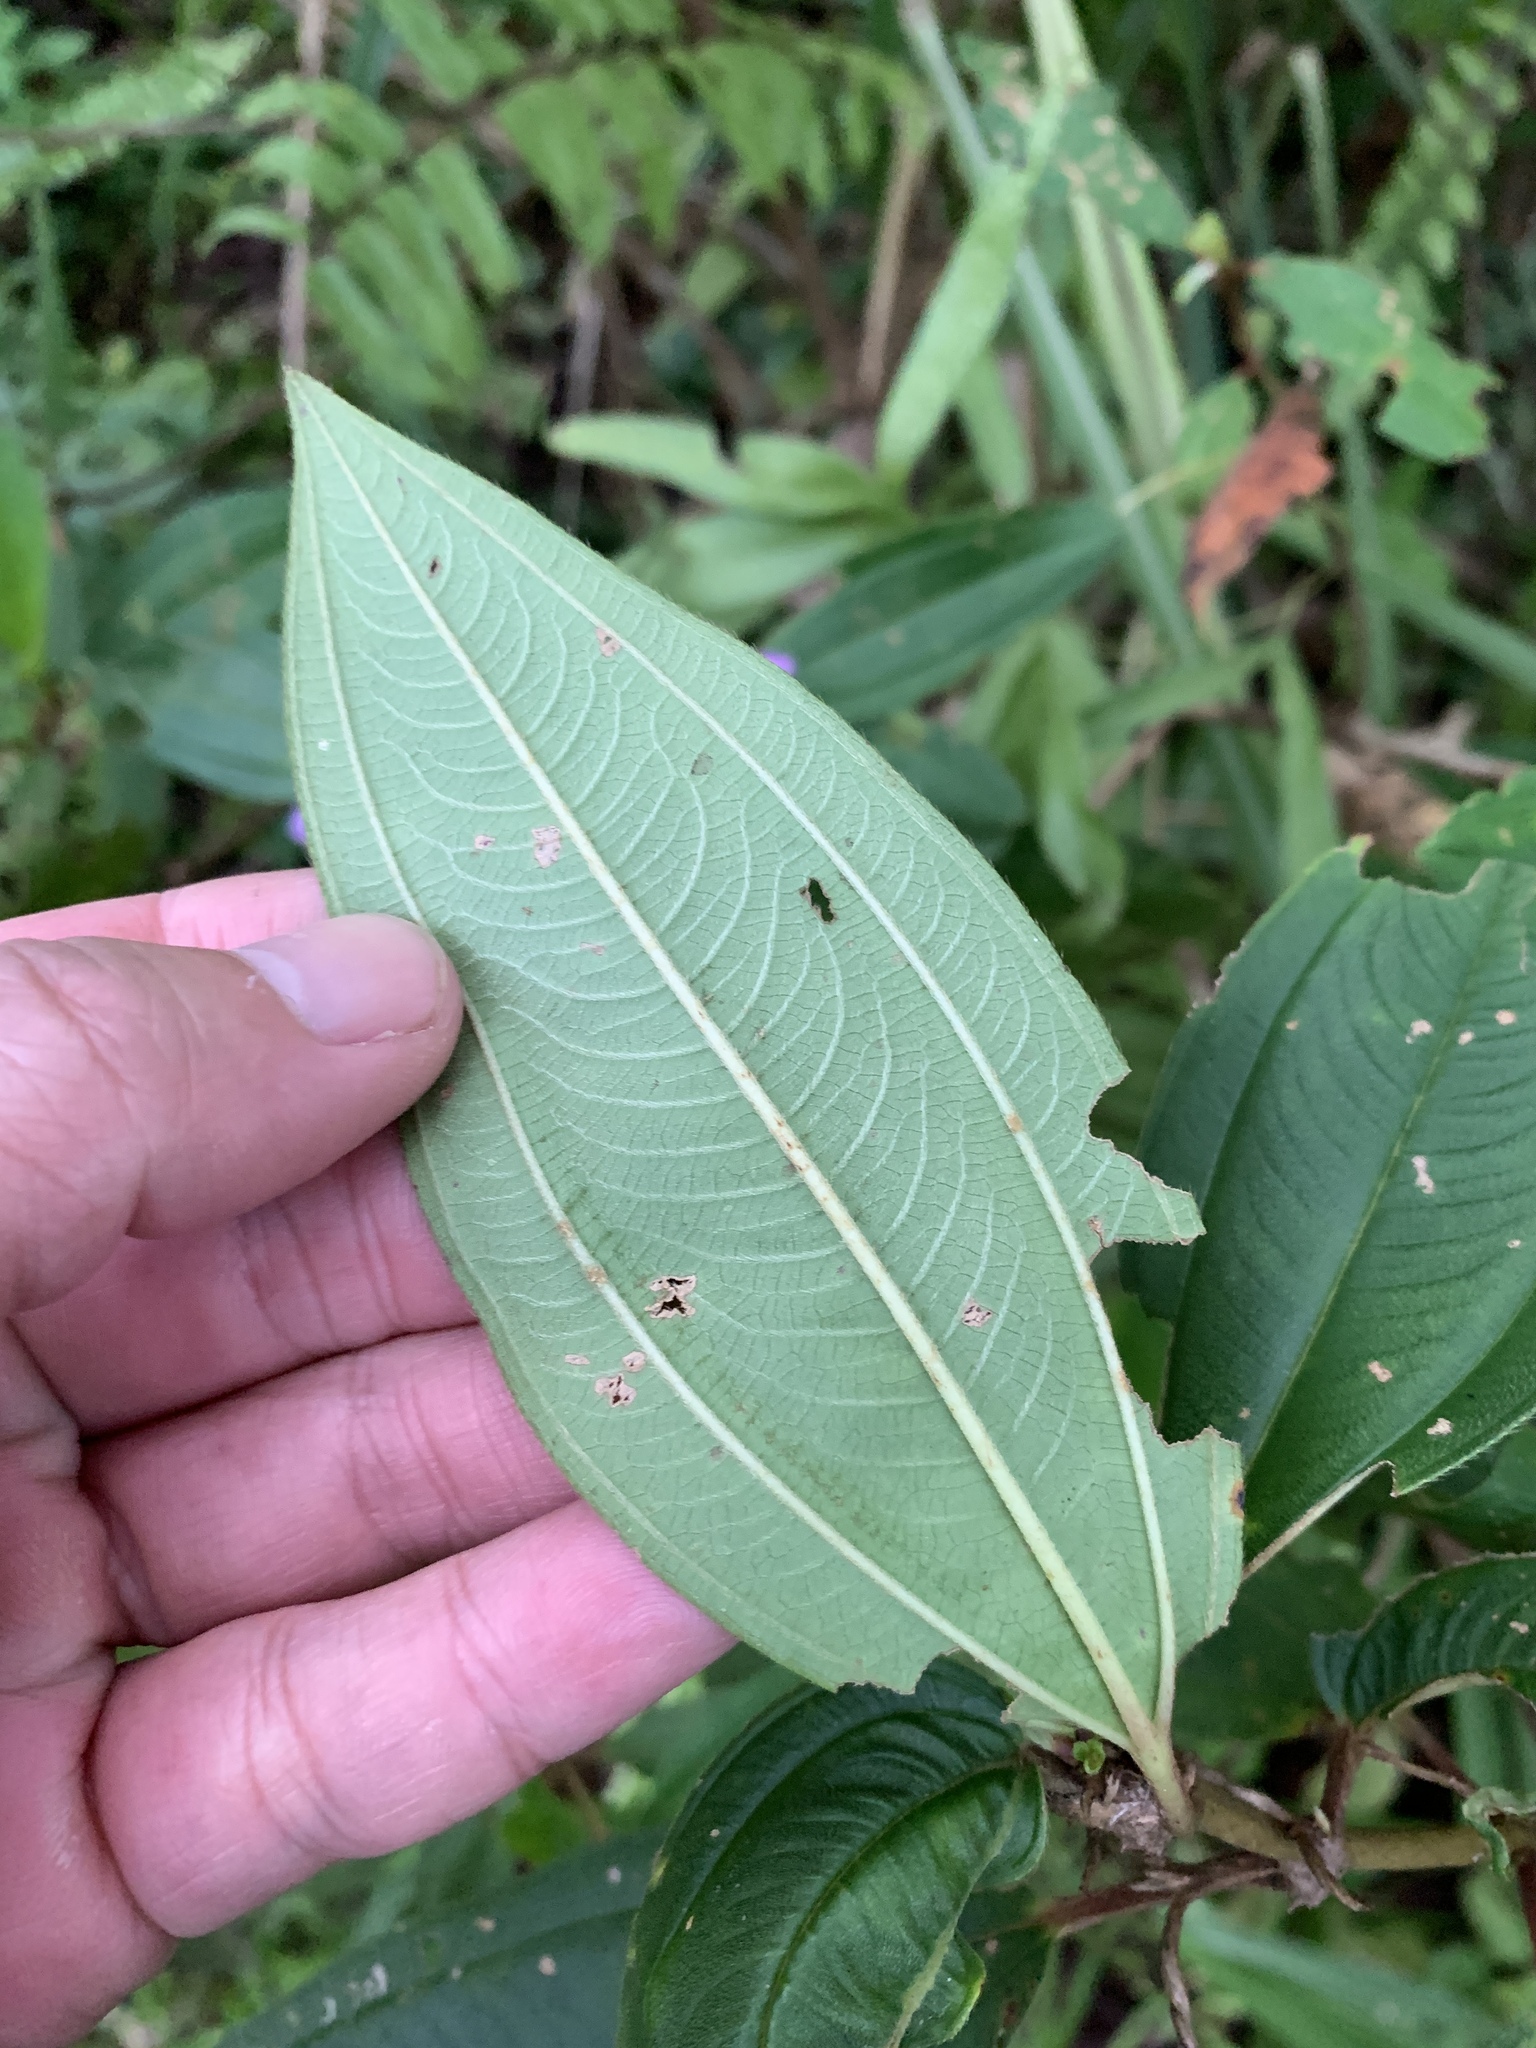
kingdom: Plantae
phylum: Tracheophyta
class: Magnoliopsida
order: Myrtales
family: Melastomataceae
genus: Melastoma
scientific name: Melastoma malabathricum
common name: Indian-rhododendron
